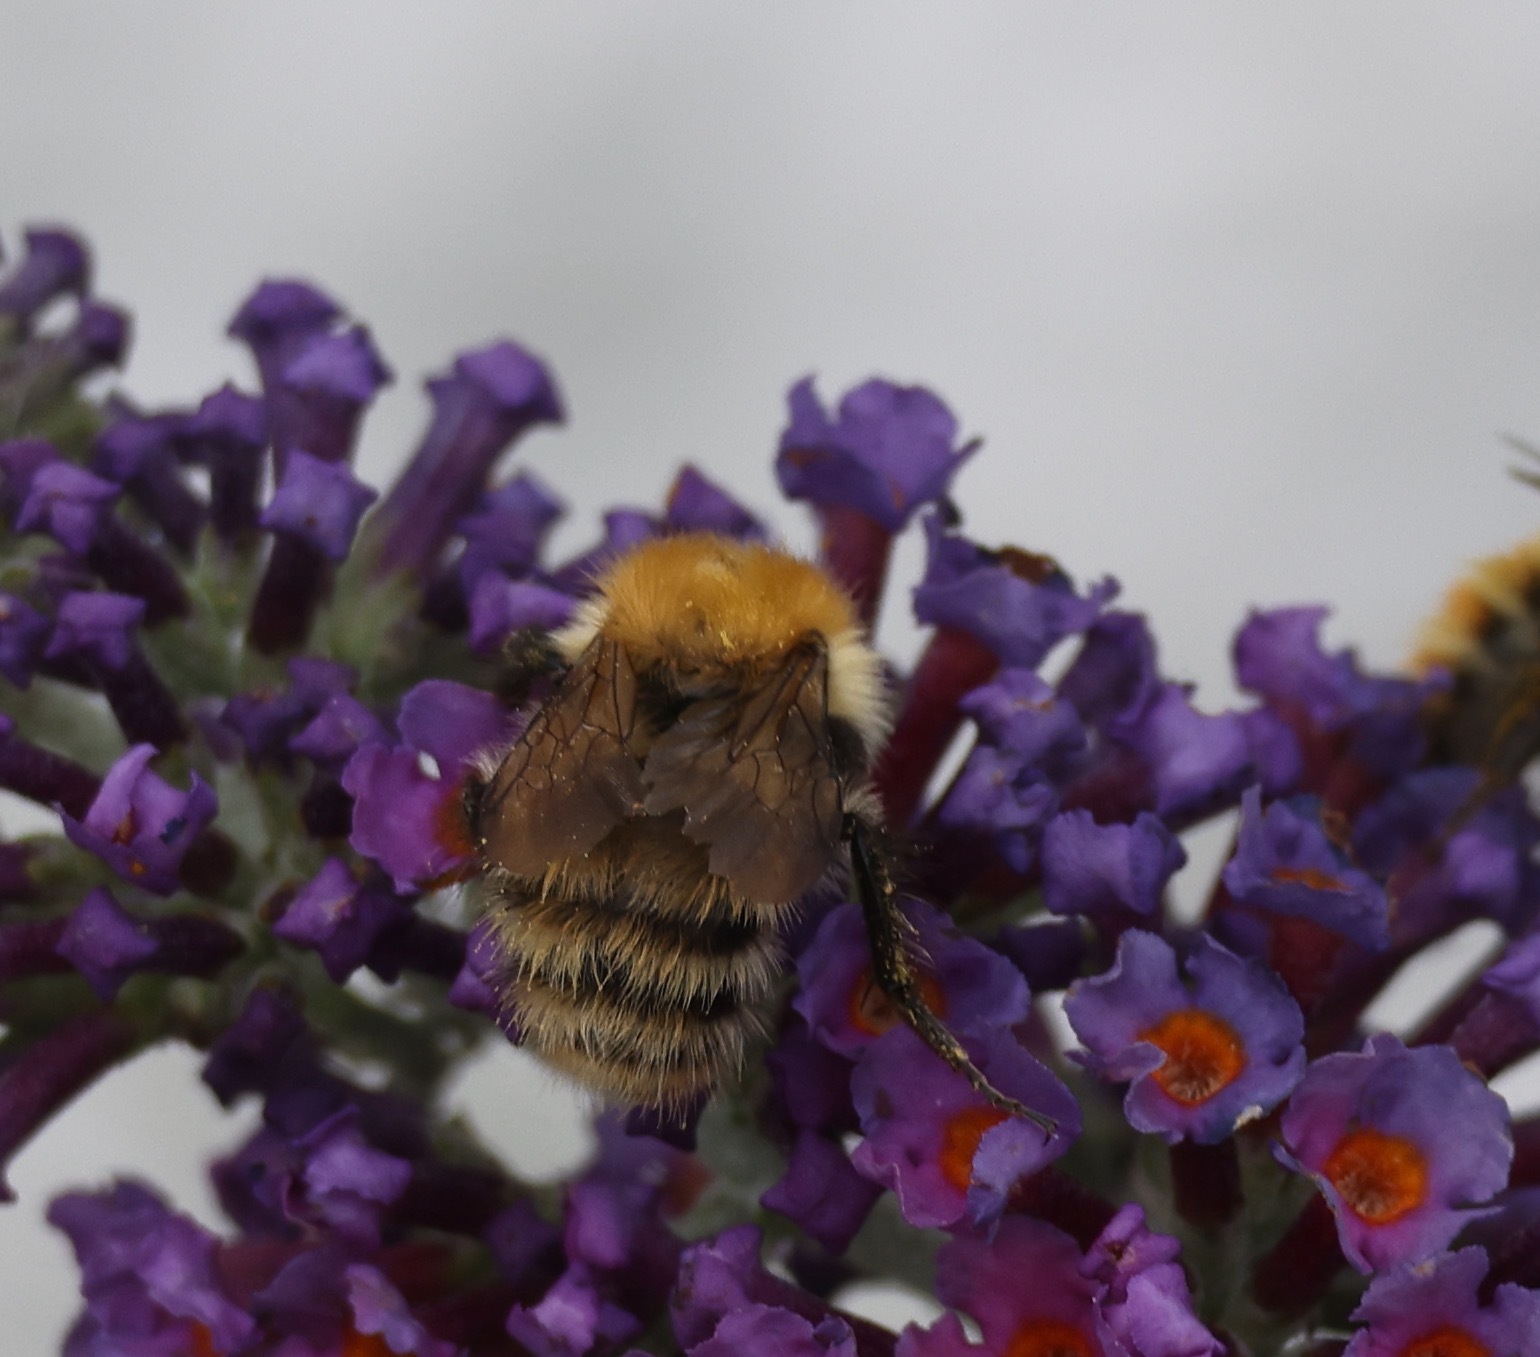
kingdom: Animalia
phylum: Arthropoda
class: Insecta
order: Hymenoptera
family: Apidae
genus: Bombus
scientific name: Bombus pascuorum
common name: Common carder bee
